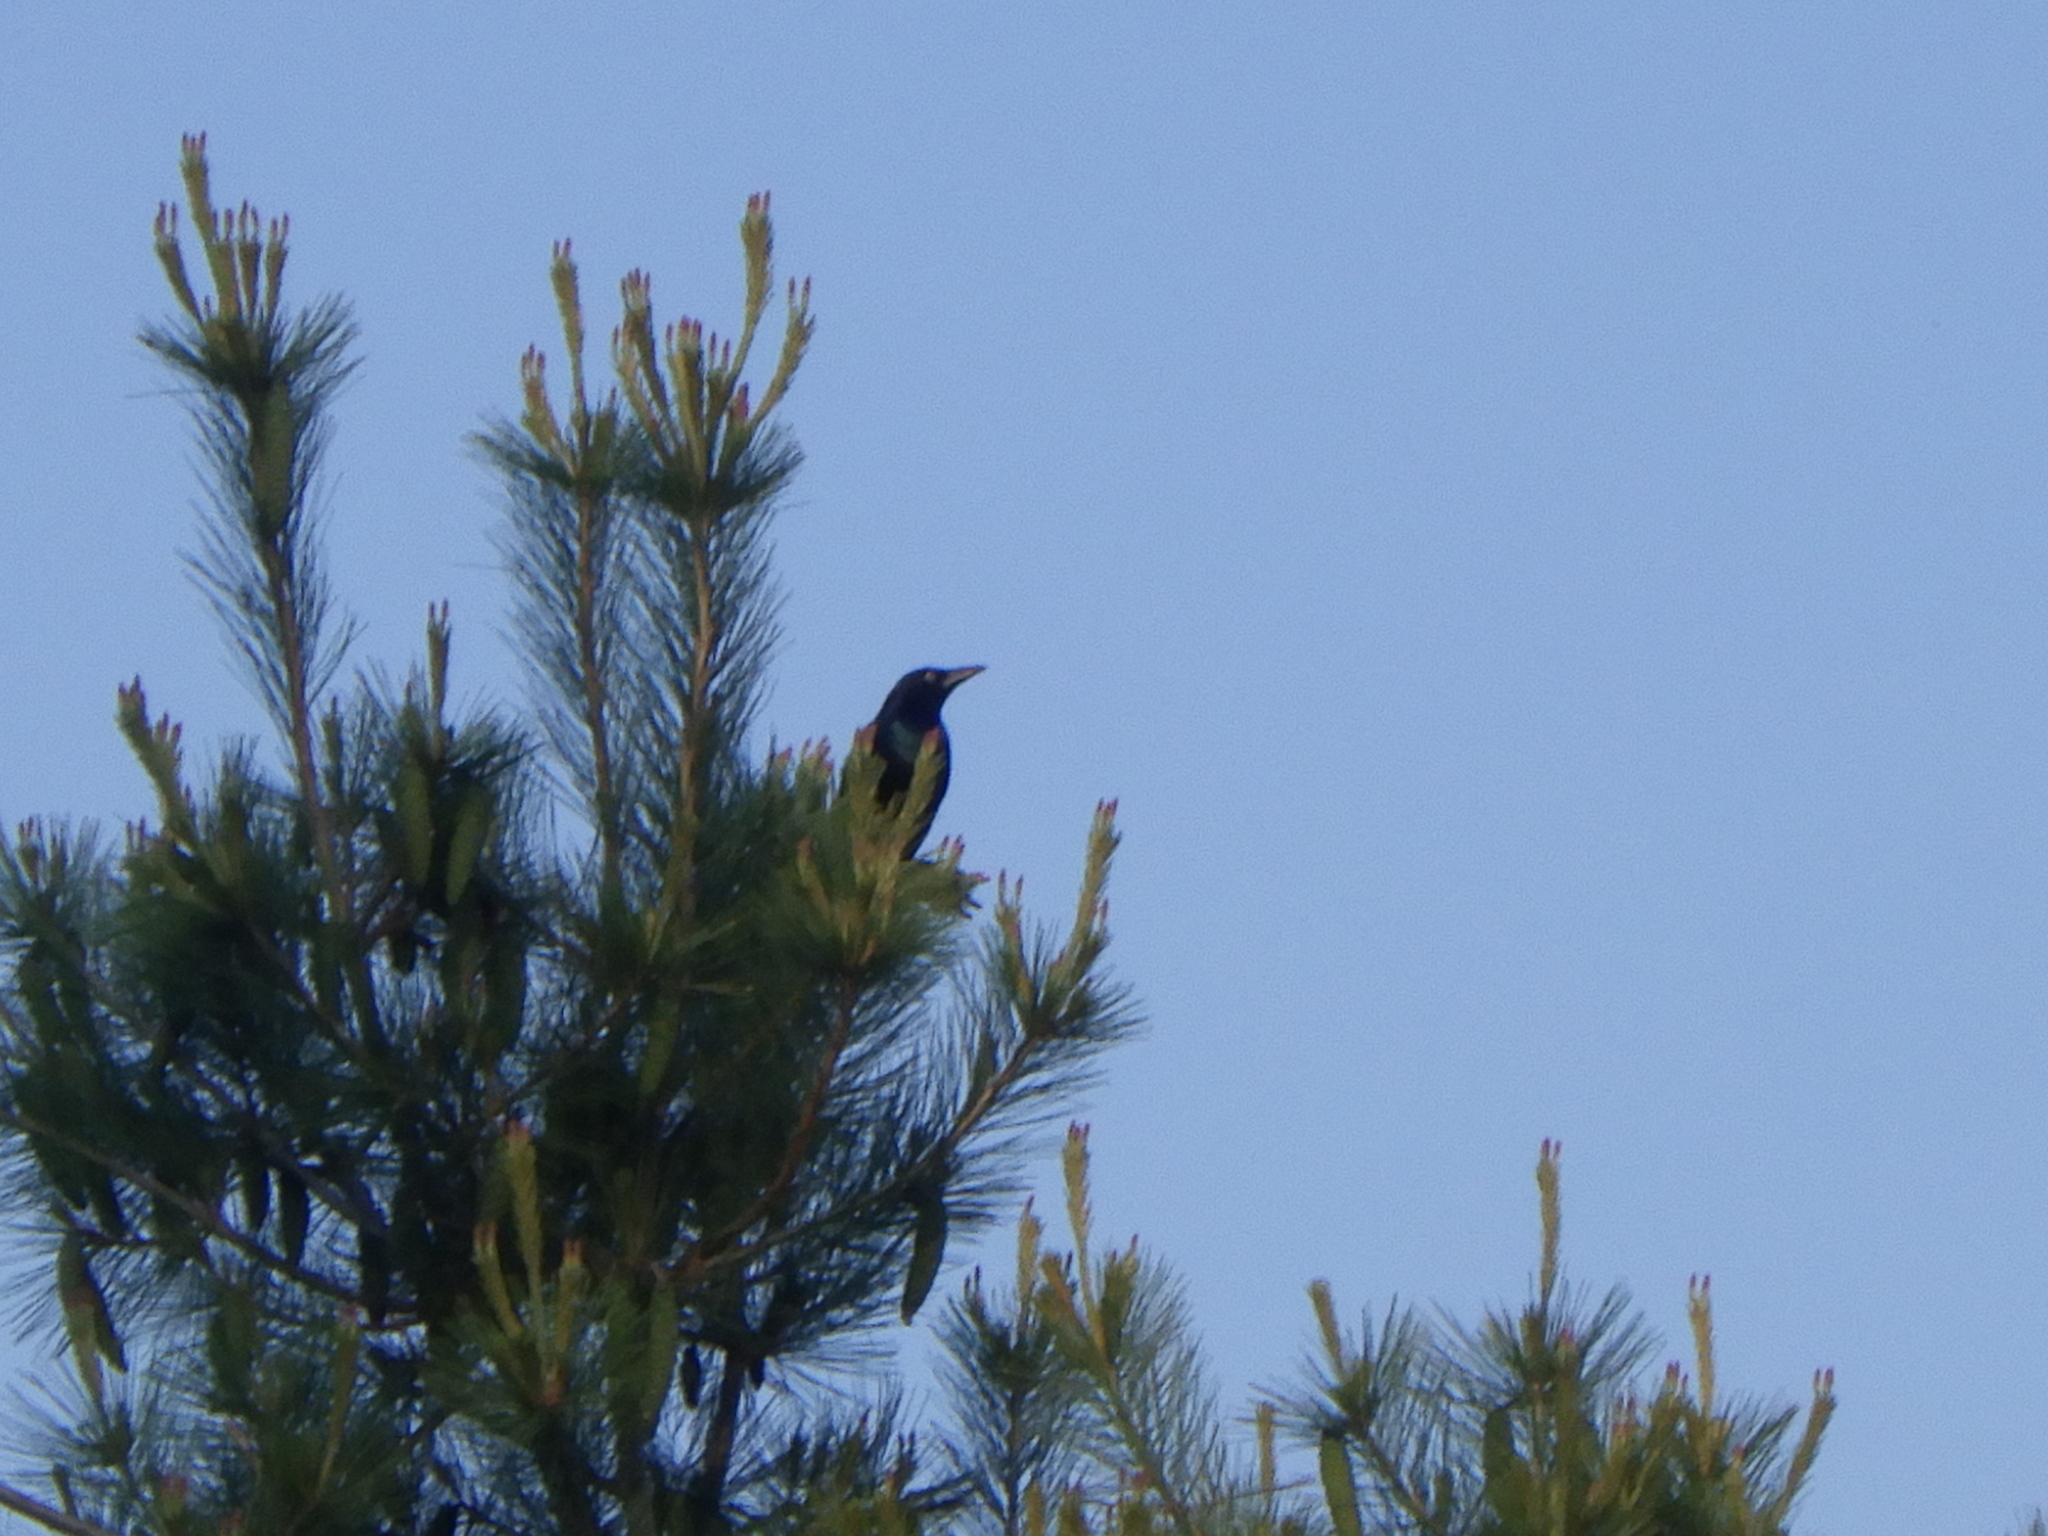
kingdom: Animalia
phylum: Chordata
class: Aves
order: Passeriformes
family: Icteridae
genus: Quiscalus
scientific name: Quiscalus quiscula
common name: Common grackle
